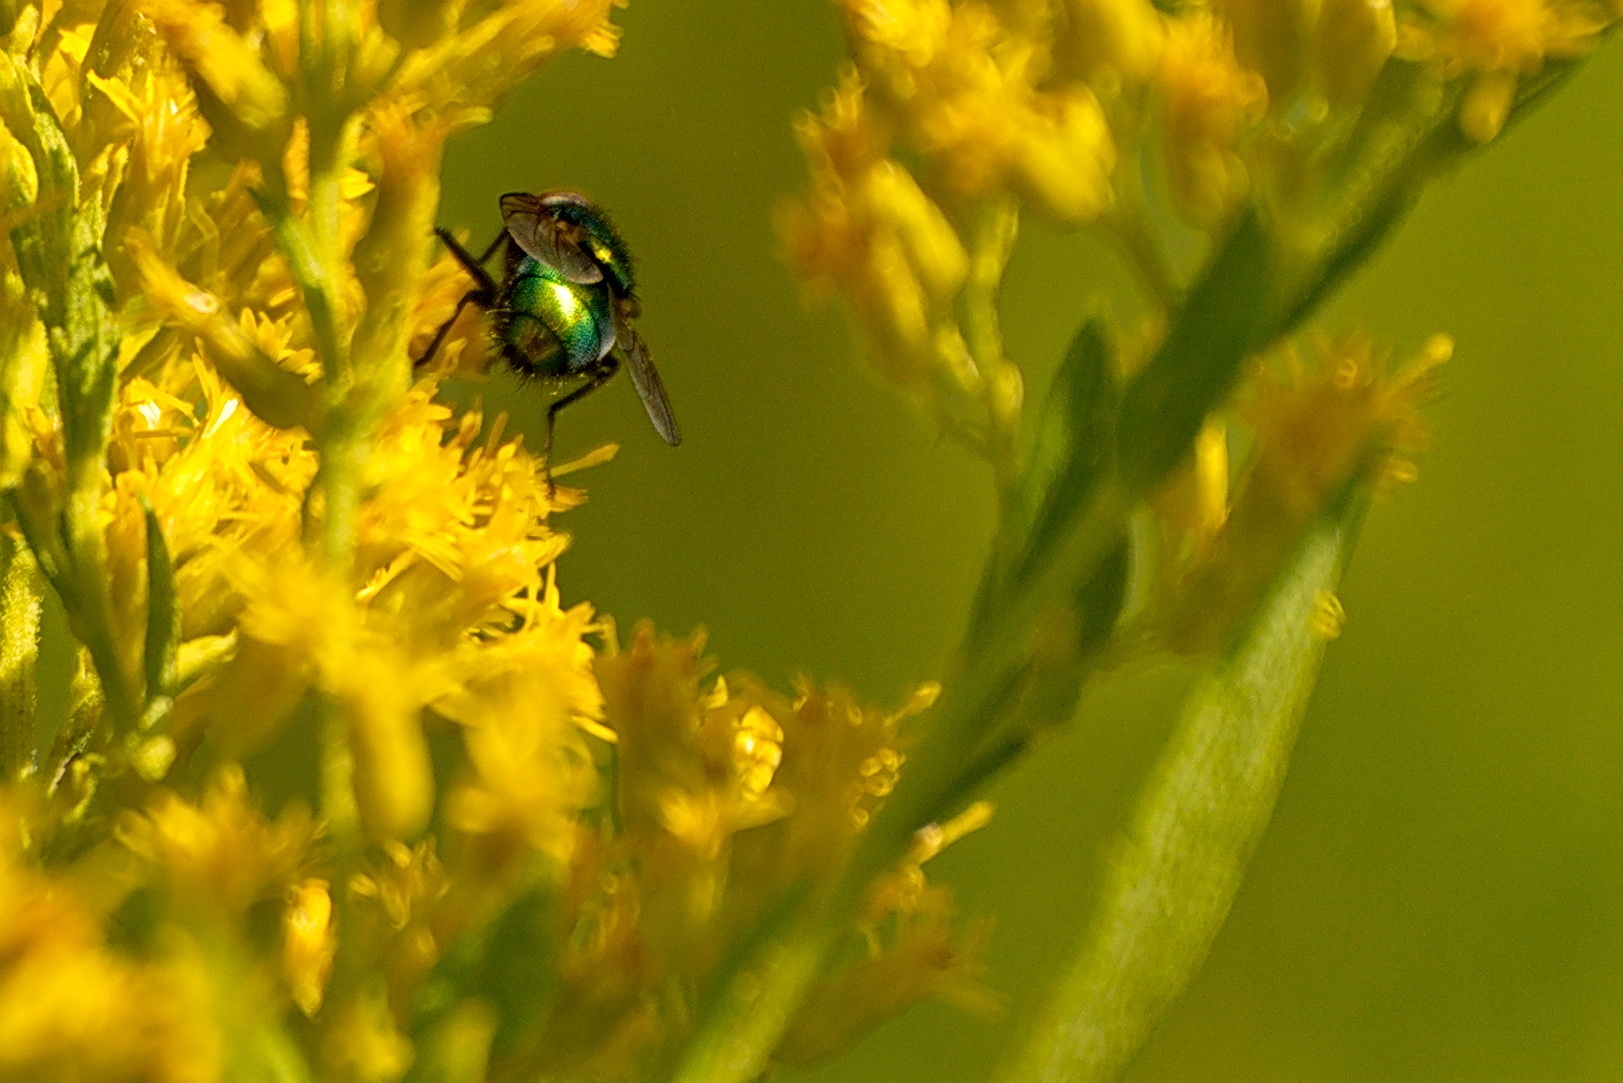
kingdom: Animalia
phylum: Arthropoda
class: Insecta
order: Diptera
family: Calliphoridae
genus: Lucilia
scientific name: Lucilia
